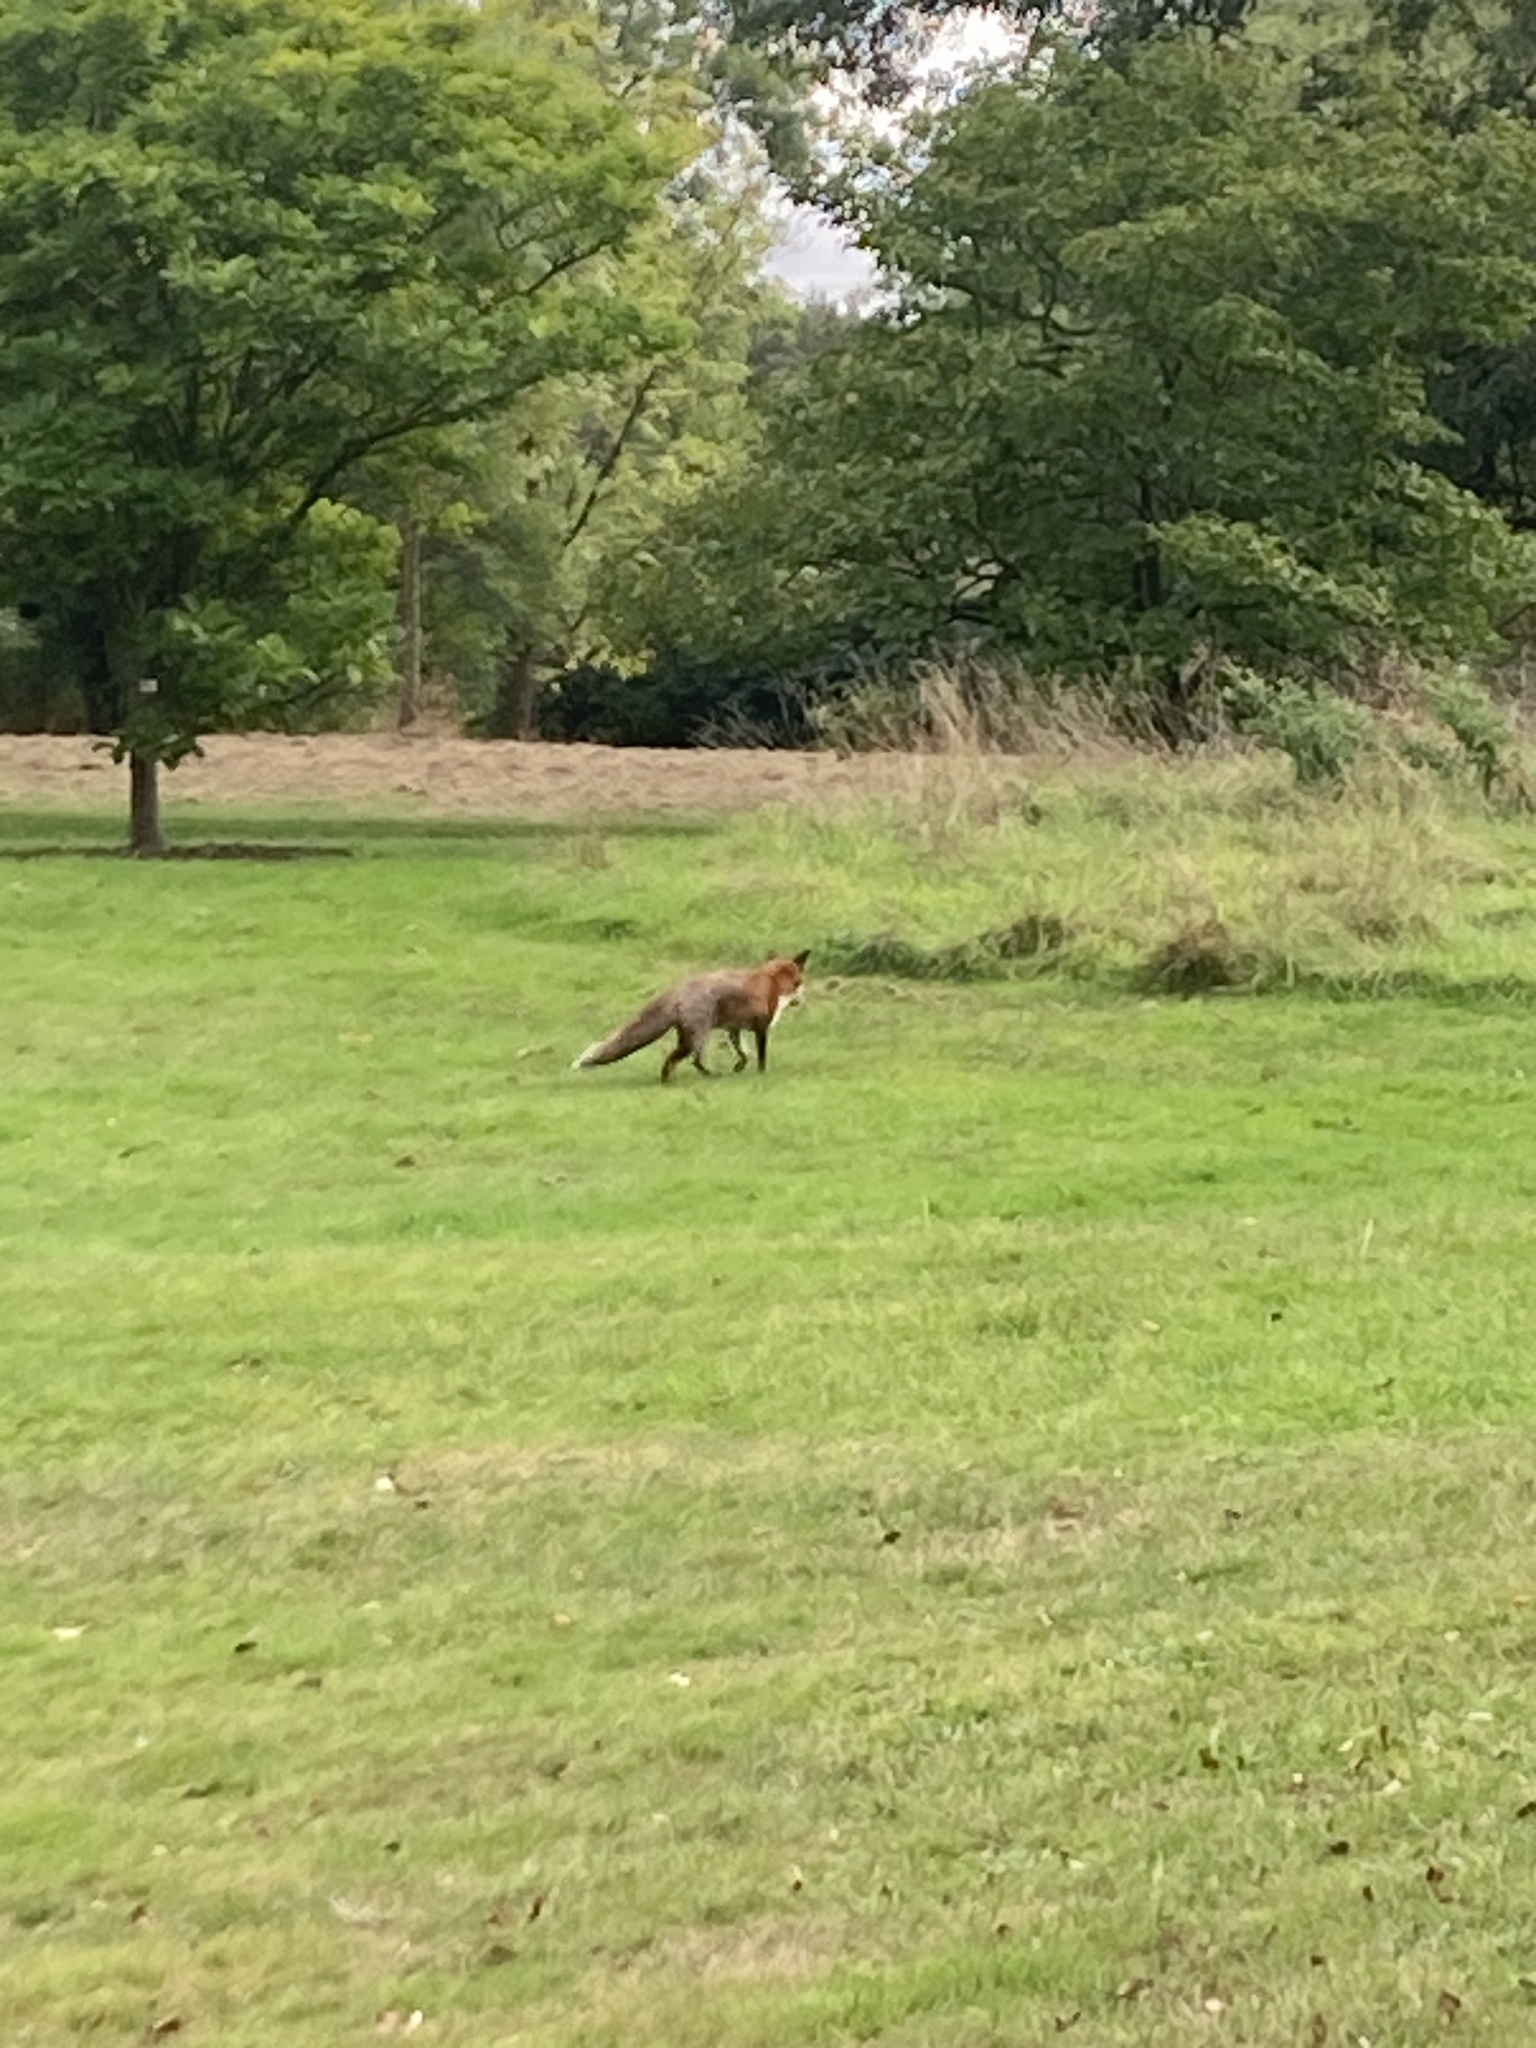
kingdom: Animalia
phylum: Chordata
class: Mammalia
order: Carnivora
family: Canidae
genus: Vulpes
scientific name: Vulpes vulpes
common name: Red fox
